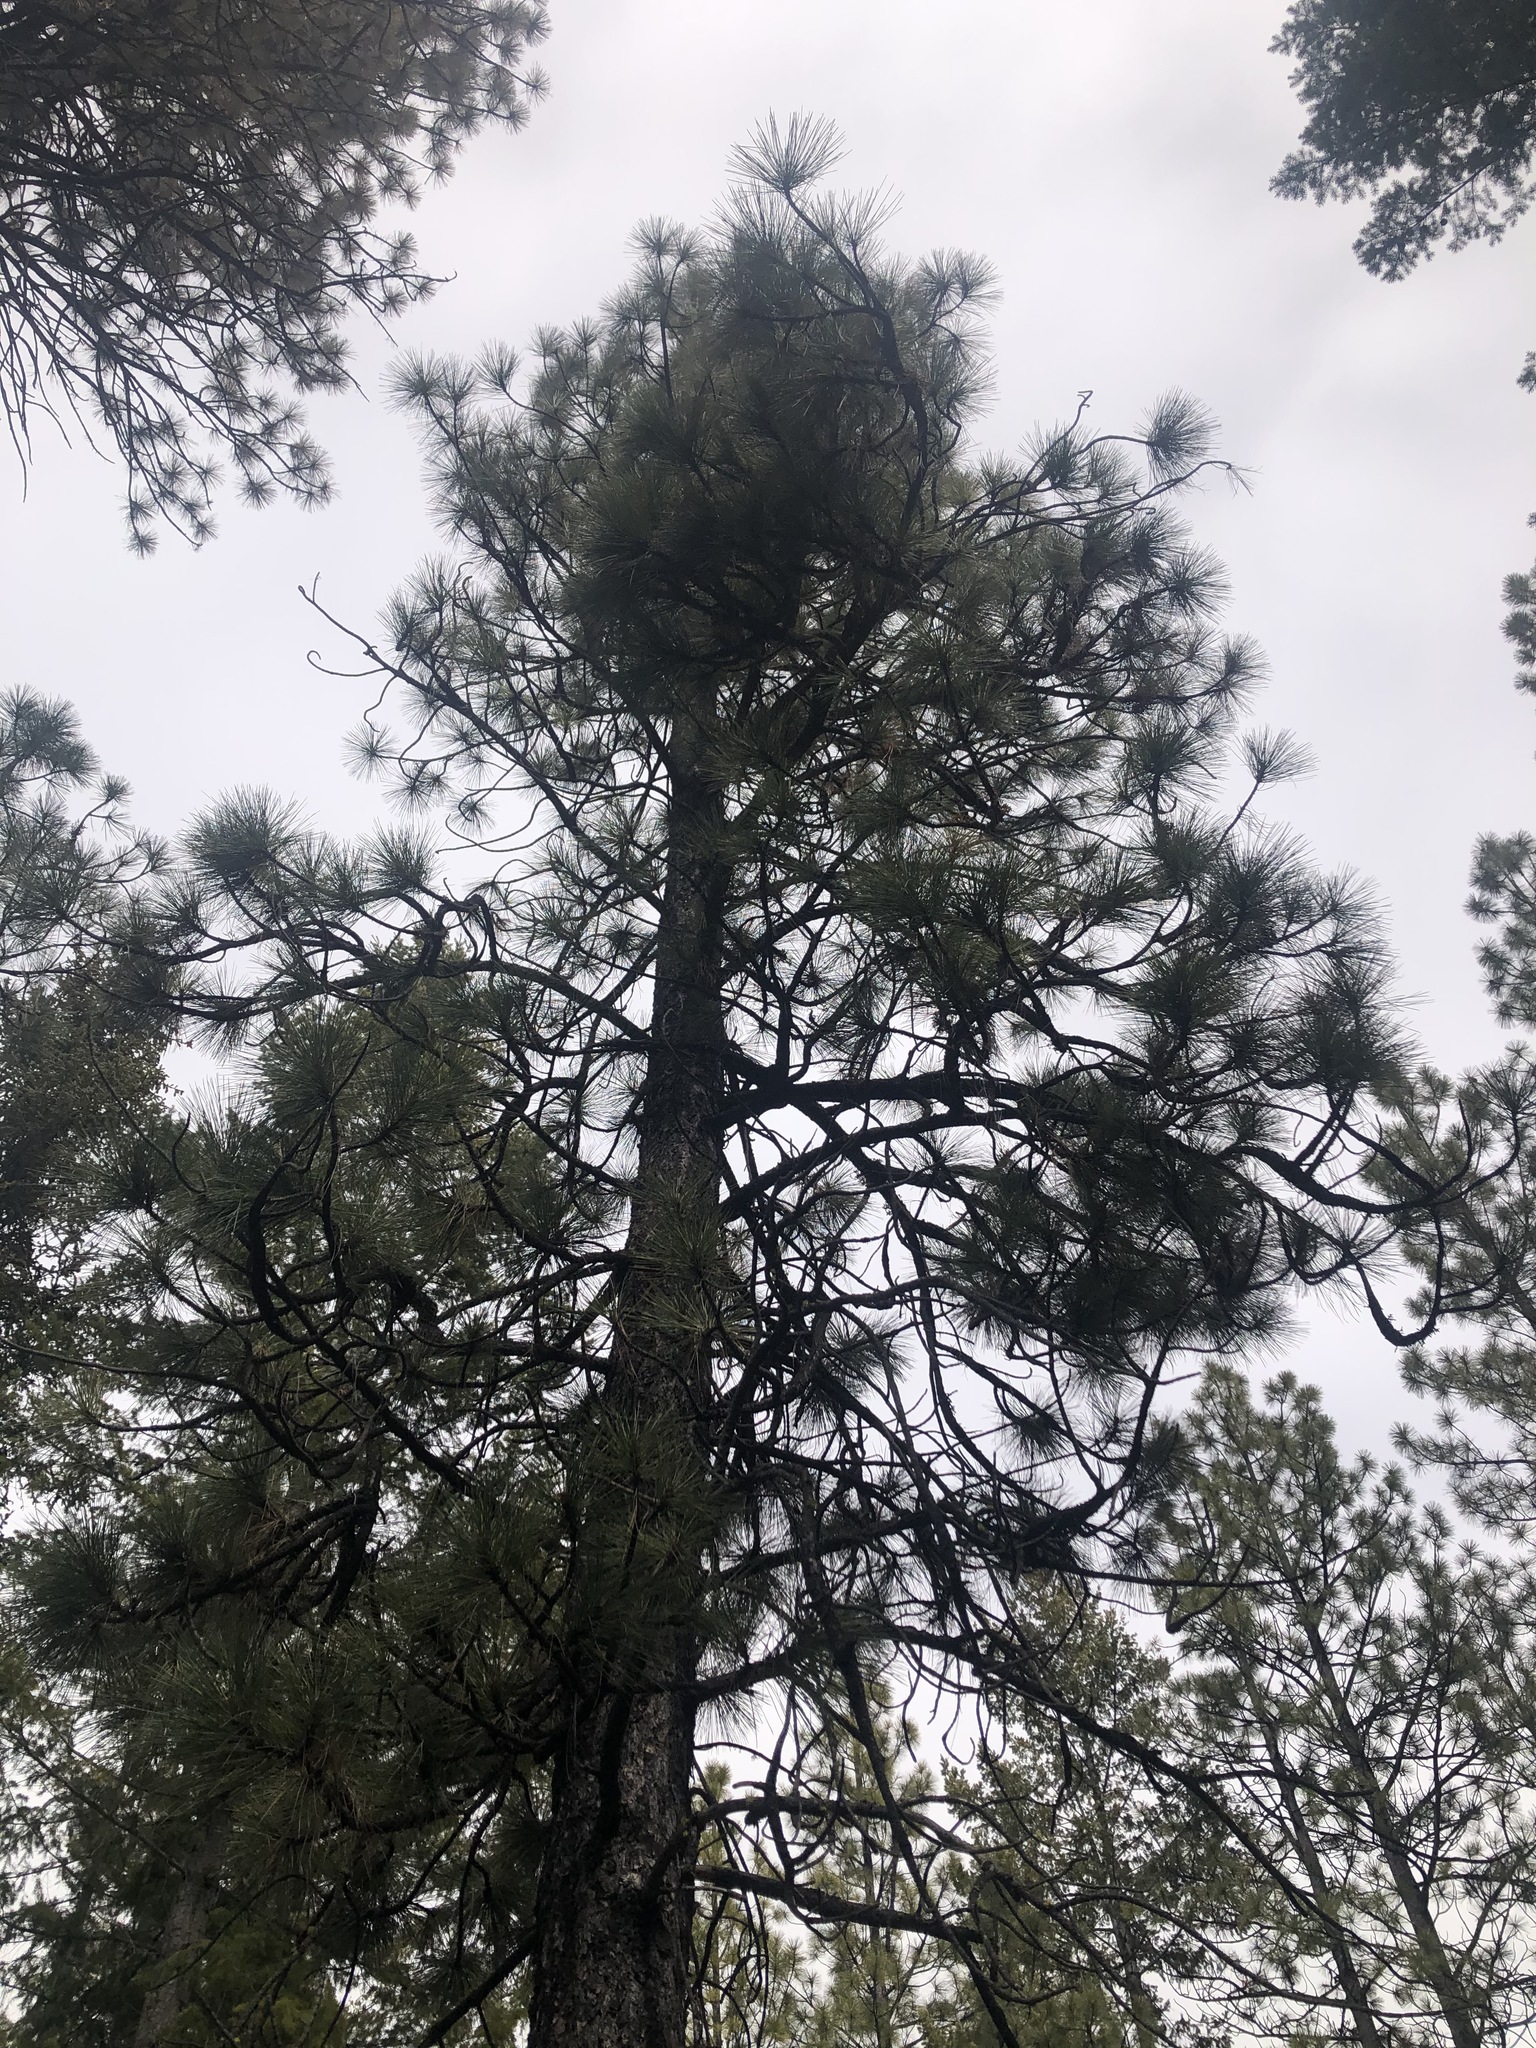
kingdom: Plantae
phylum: Tracheophyta
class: Pinopsida
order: Pinales
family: Pinaceae
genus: Pinus
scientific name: Pinus ponderosa
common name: Western yellow-pine
